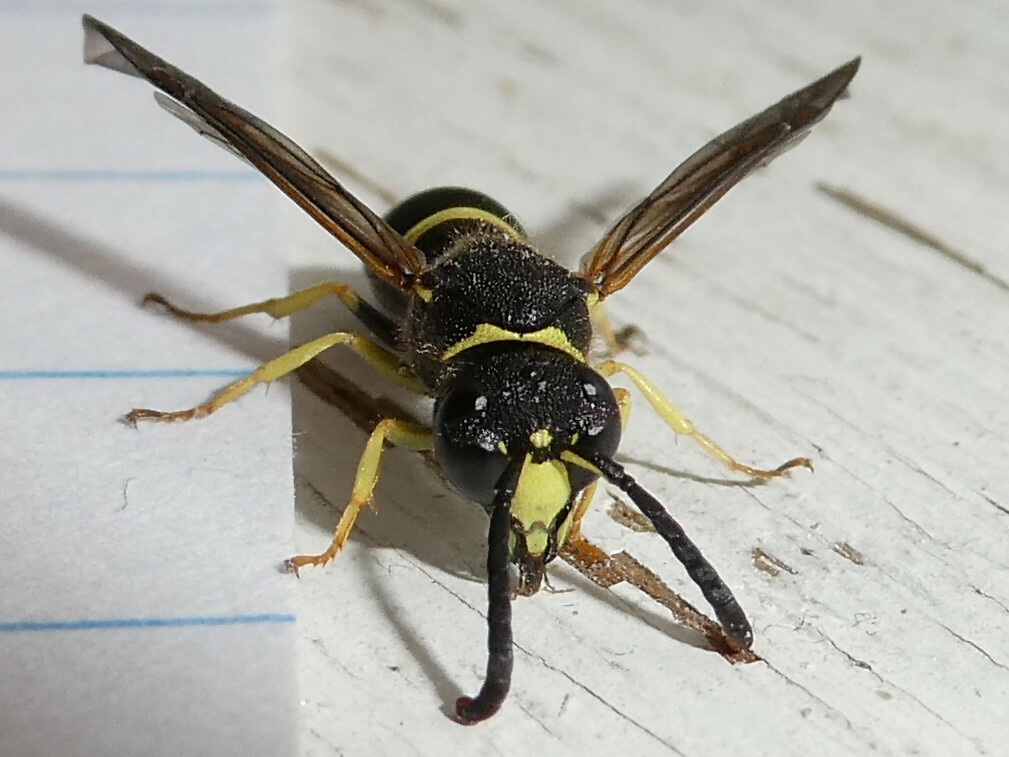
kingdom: Animalia
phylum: Arthropoda
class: Insecta
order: Hymenoptera
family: Vespidae
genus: Ancistrocerus
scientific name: Ancistrocerus
